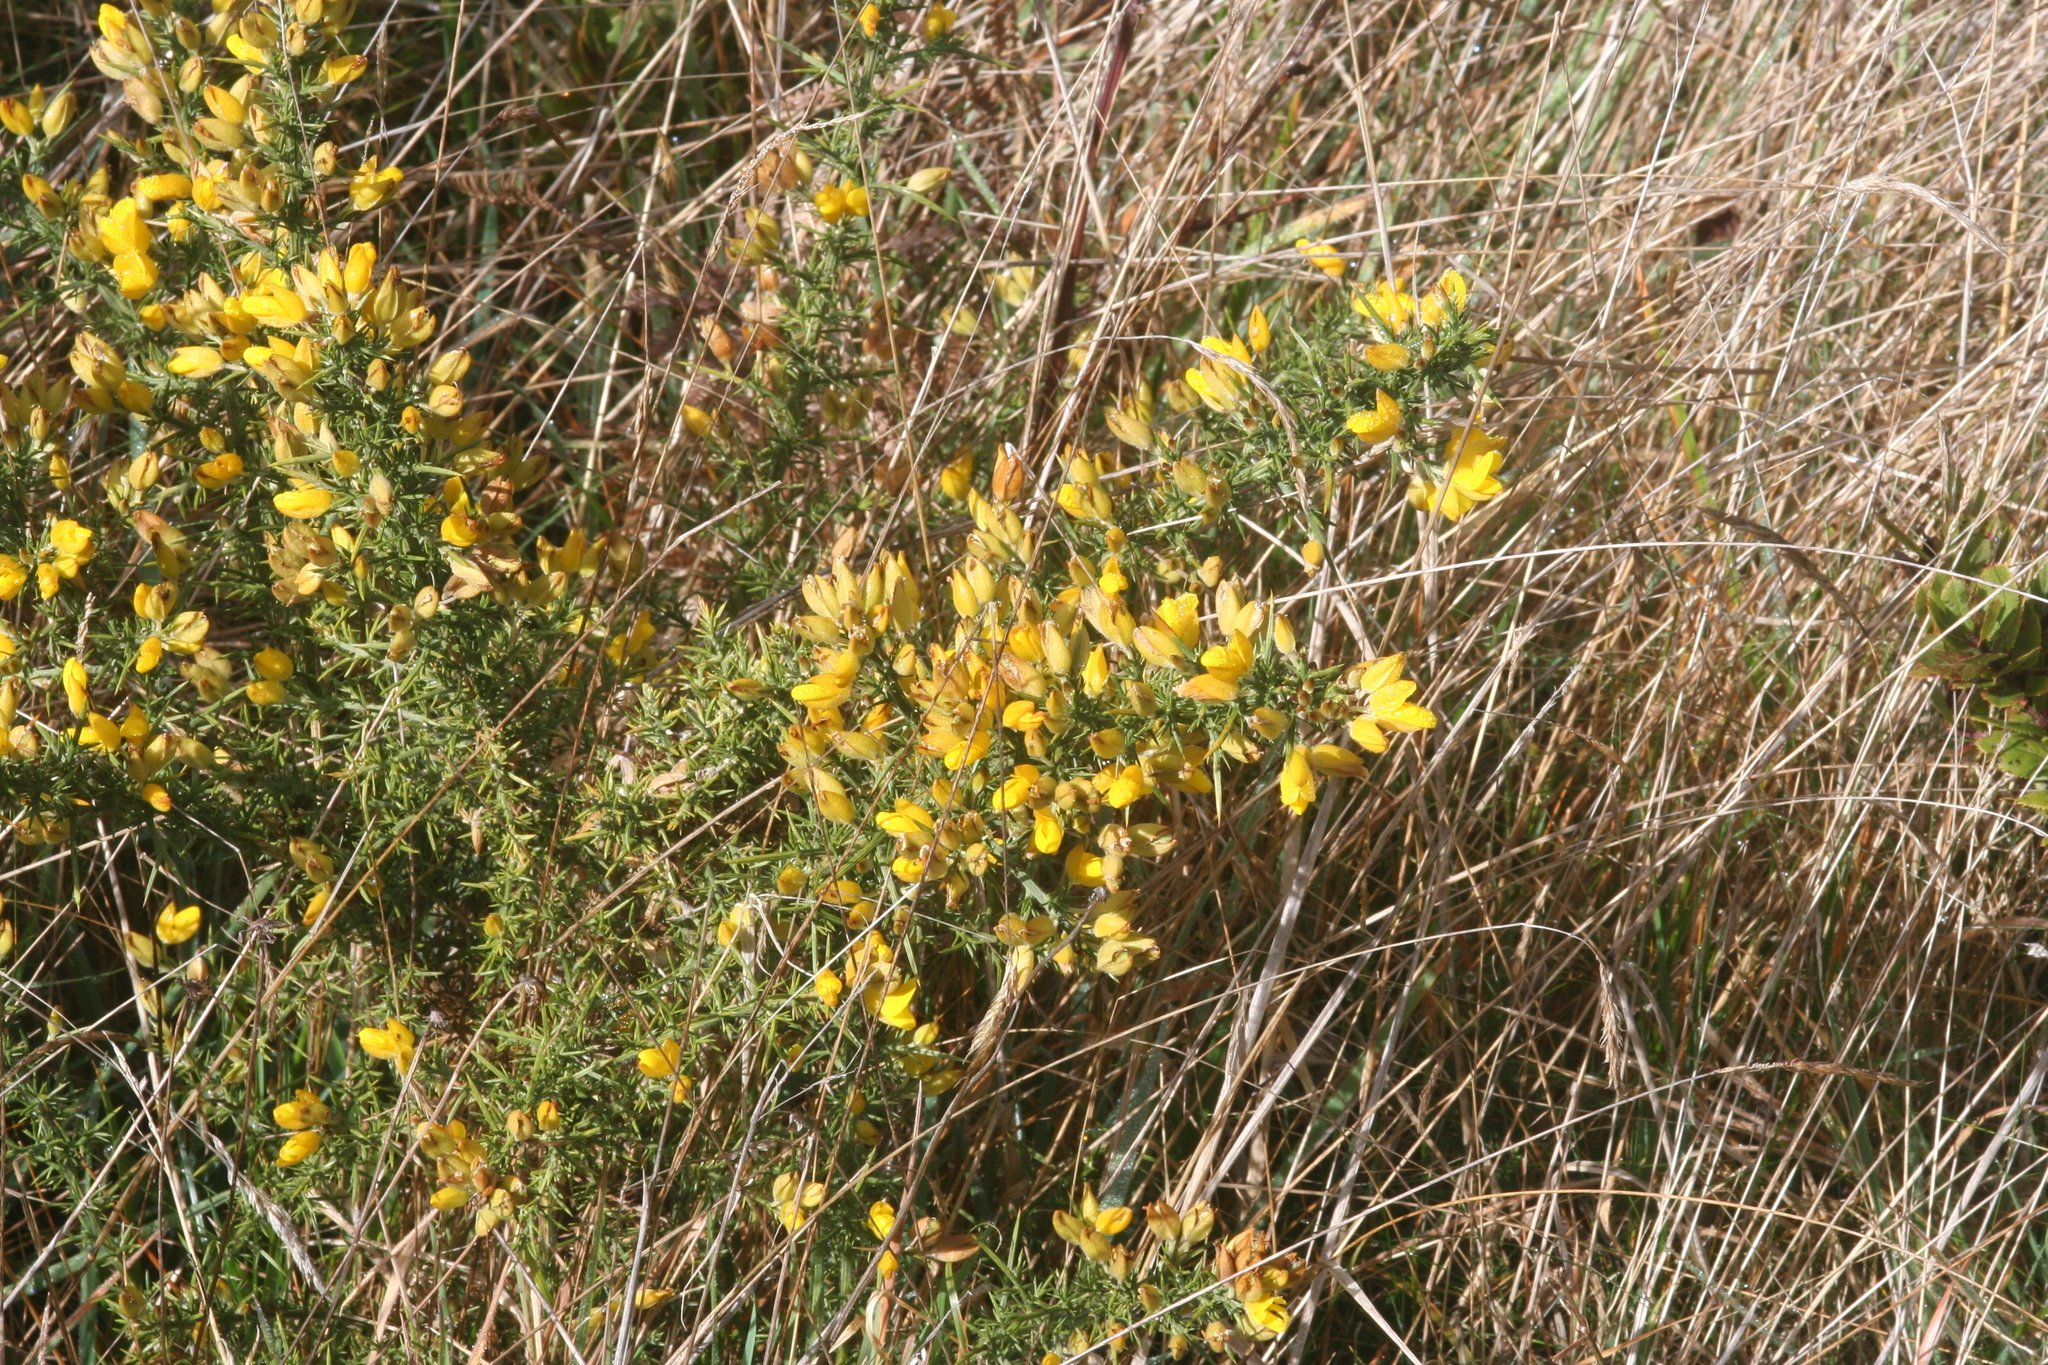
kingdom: Plantae
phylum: Tracheophyta
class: Magnoliopsida
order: Fabales
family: Fabaceae
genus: Ulex
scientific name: Ulex europaeus
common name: Common gorse
